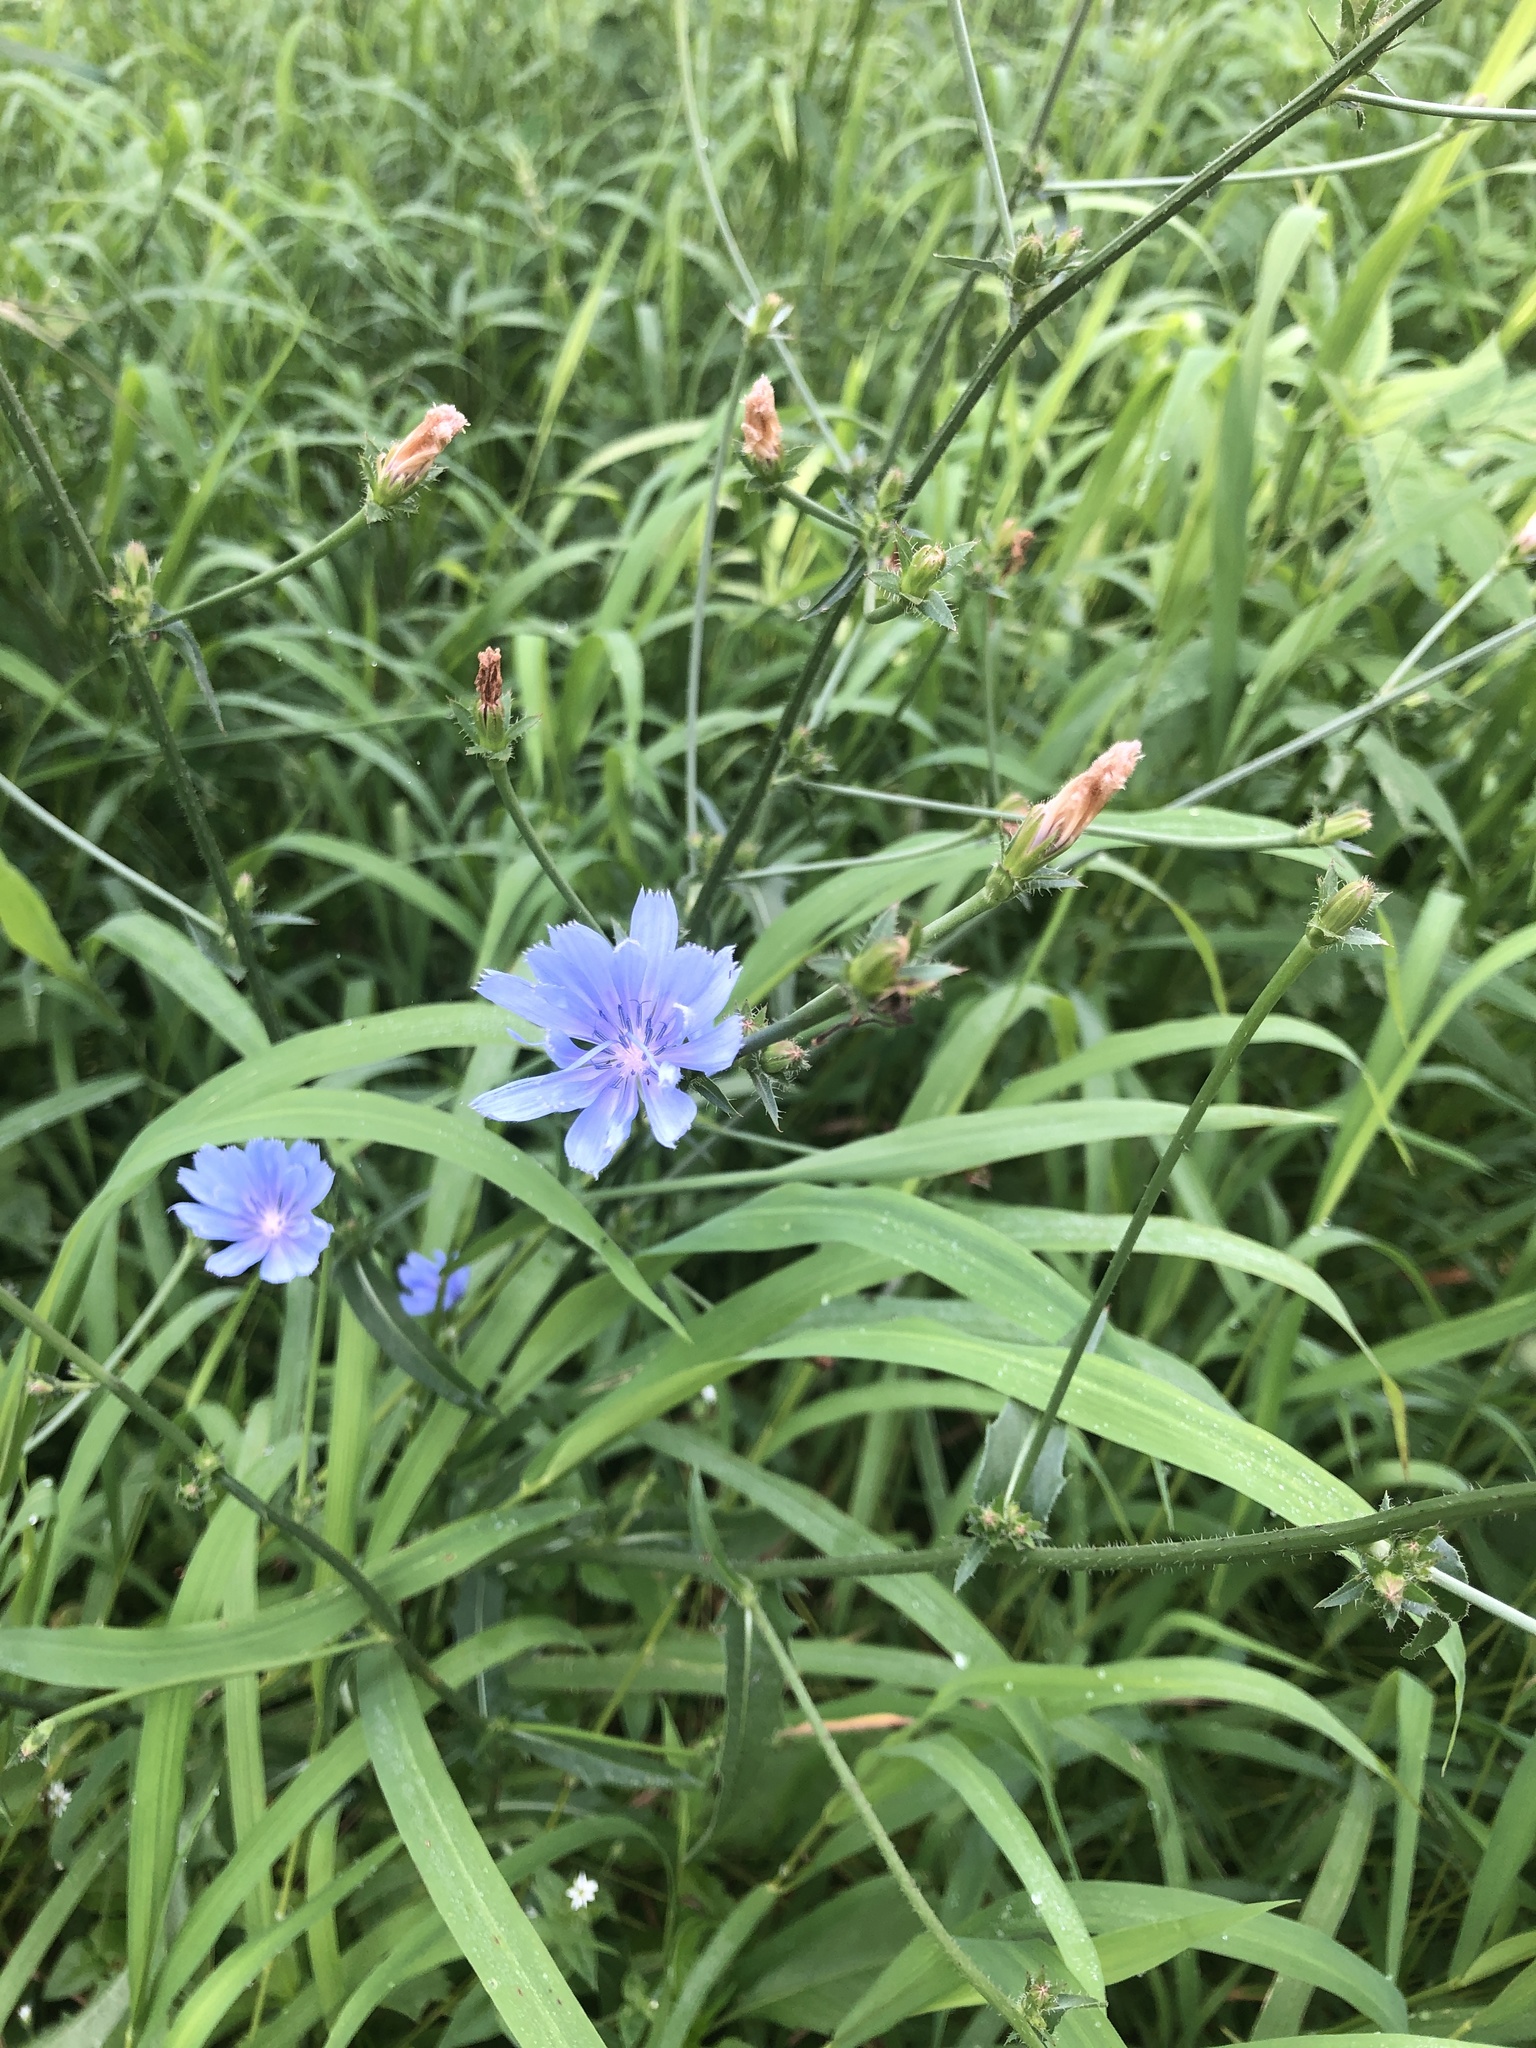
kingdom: Plantae
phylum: Tracheophyta
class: Magnoliopsida
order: Asterales
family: Asteraceae
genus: Cichorium
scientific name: Cichorium intybus
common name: Chicory
